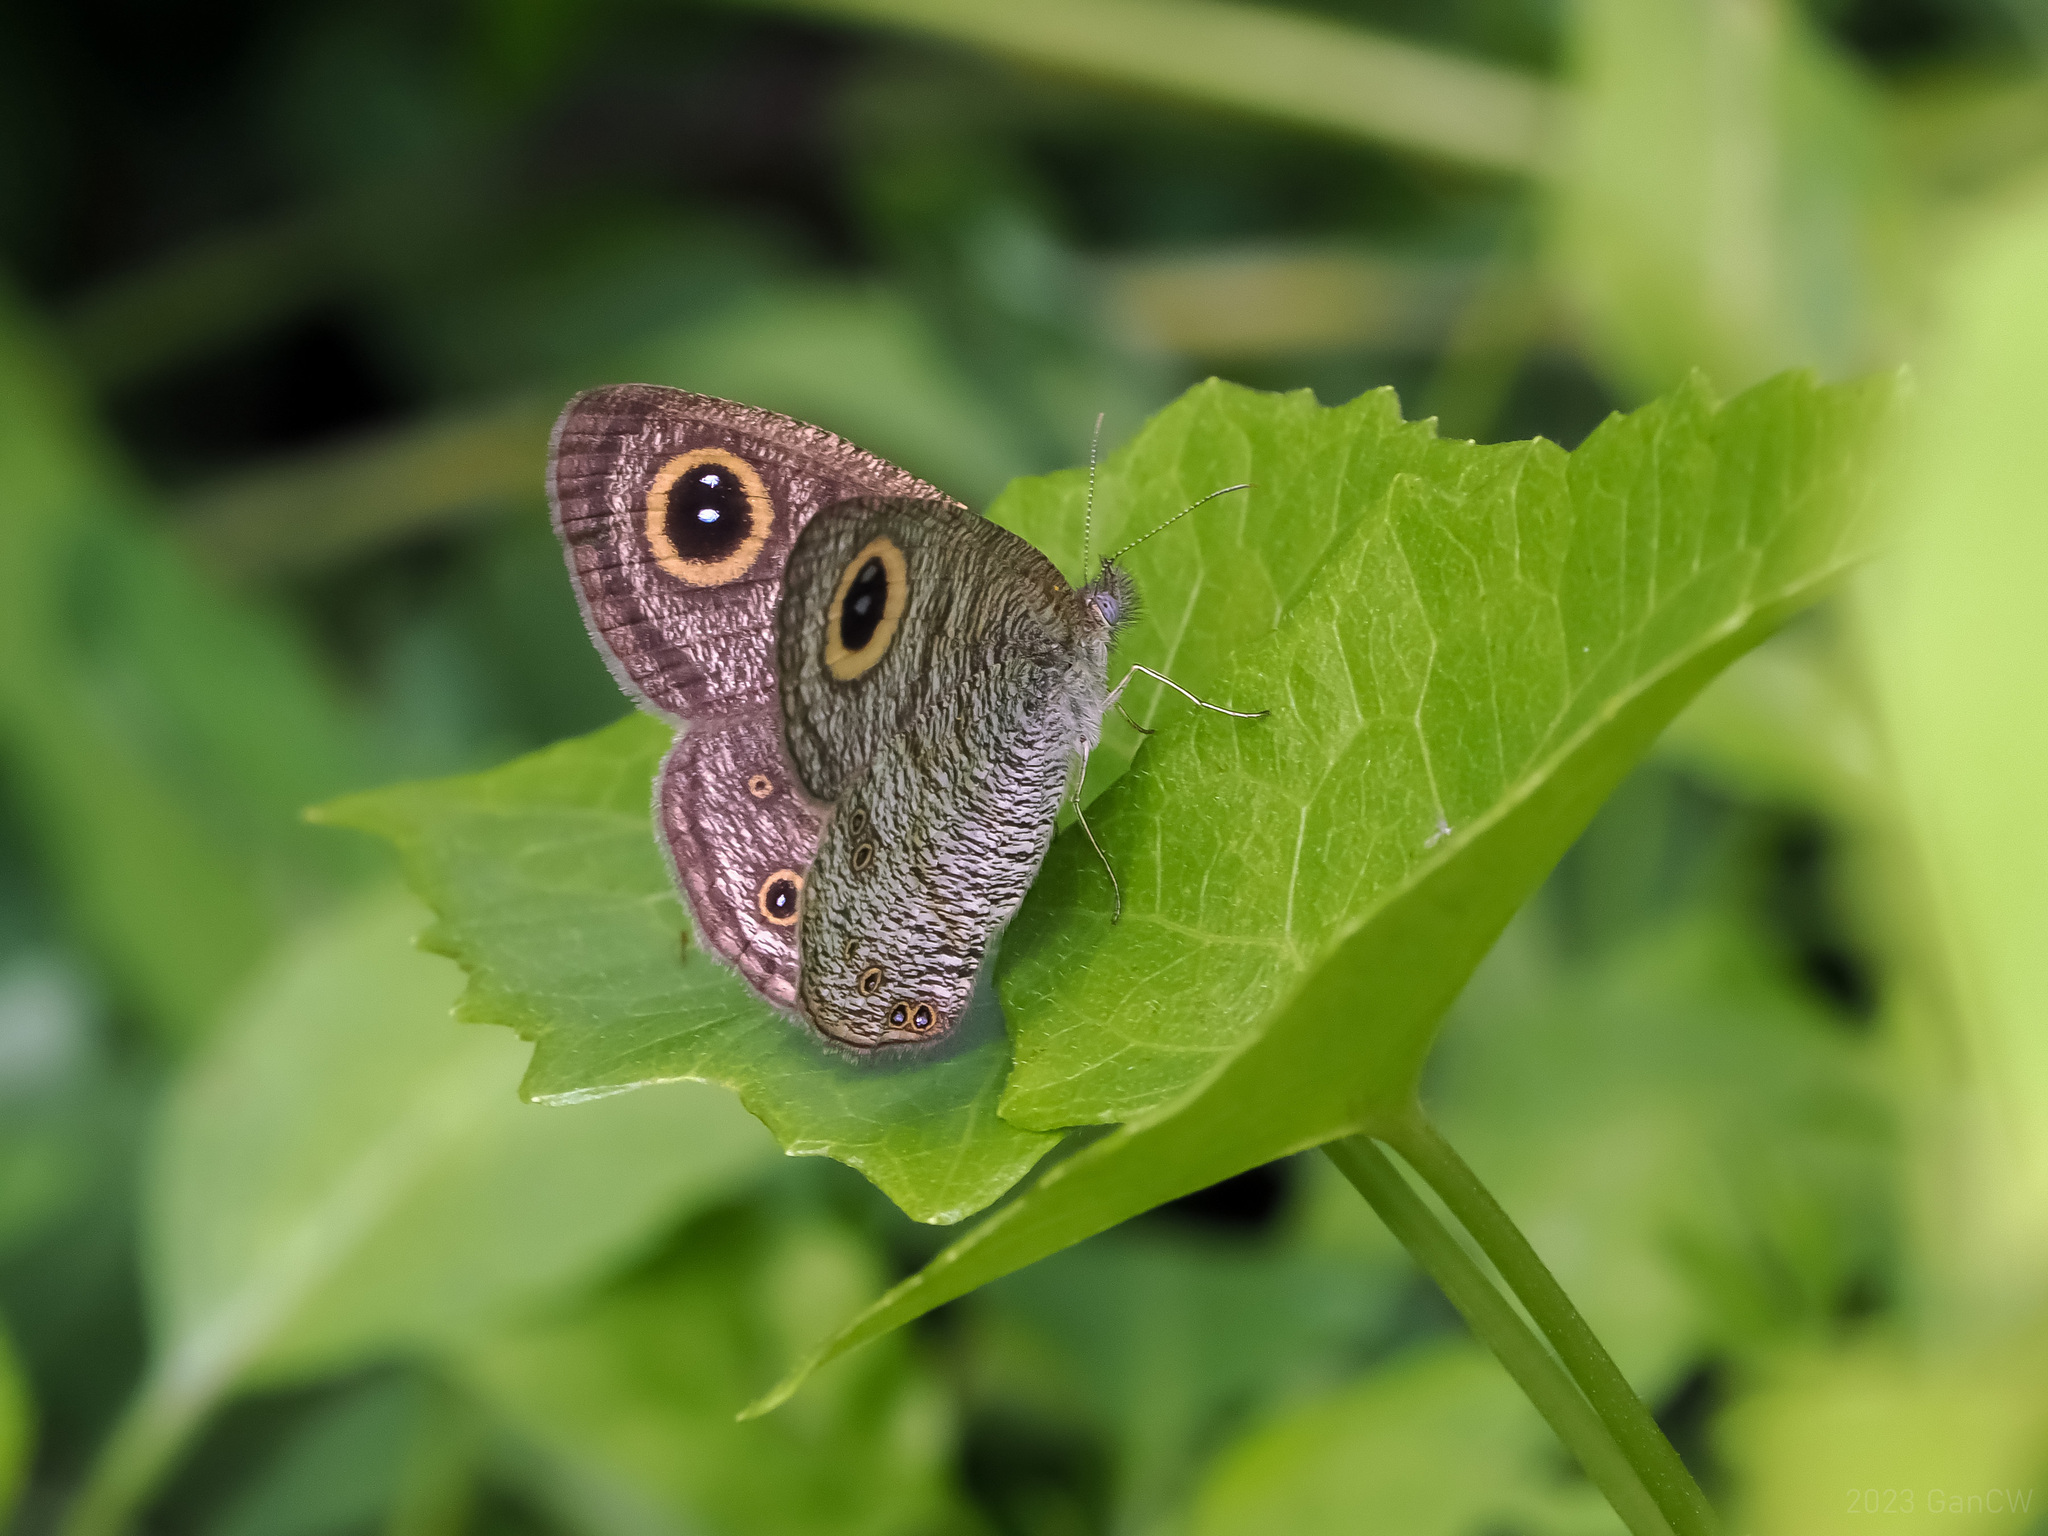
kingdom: Animalia
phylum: Arthropoda
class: Insecta
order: Lepidoptera
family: Nymphalidae
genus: Ypthima
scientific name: Ypthima baldus
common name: Common five-ring
